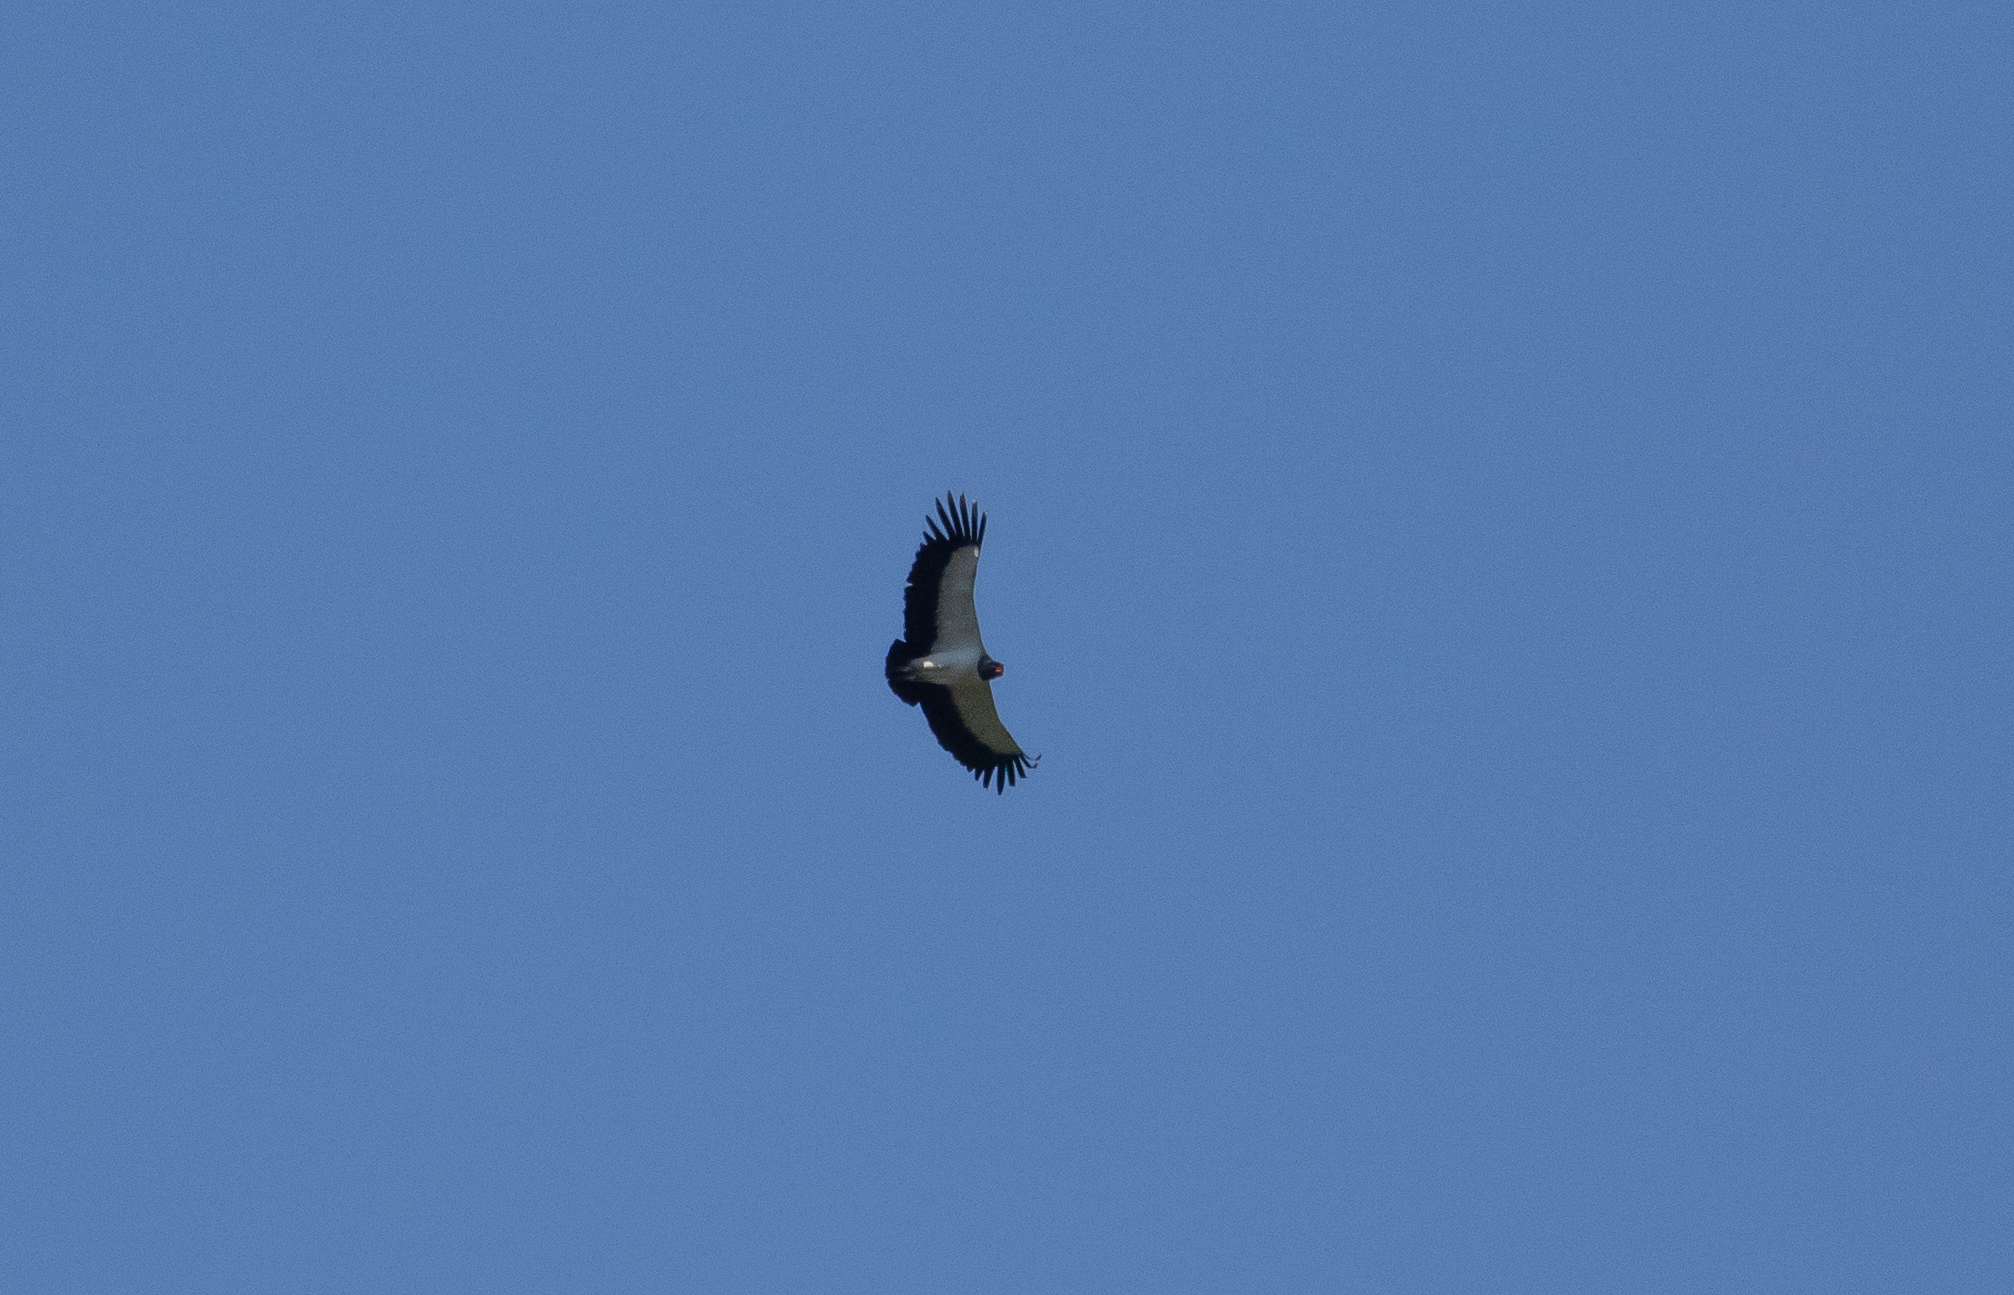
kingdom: Animalia
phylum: Chordata
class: Aves
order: Accipitriformes
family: Cathartidae
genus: Sarcoramphus
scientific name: Sarcoramphus papa
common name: King vulture
